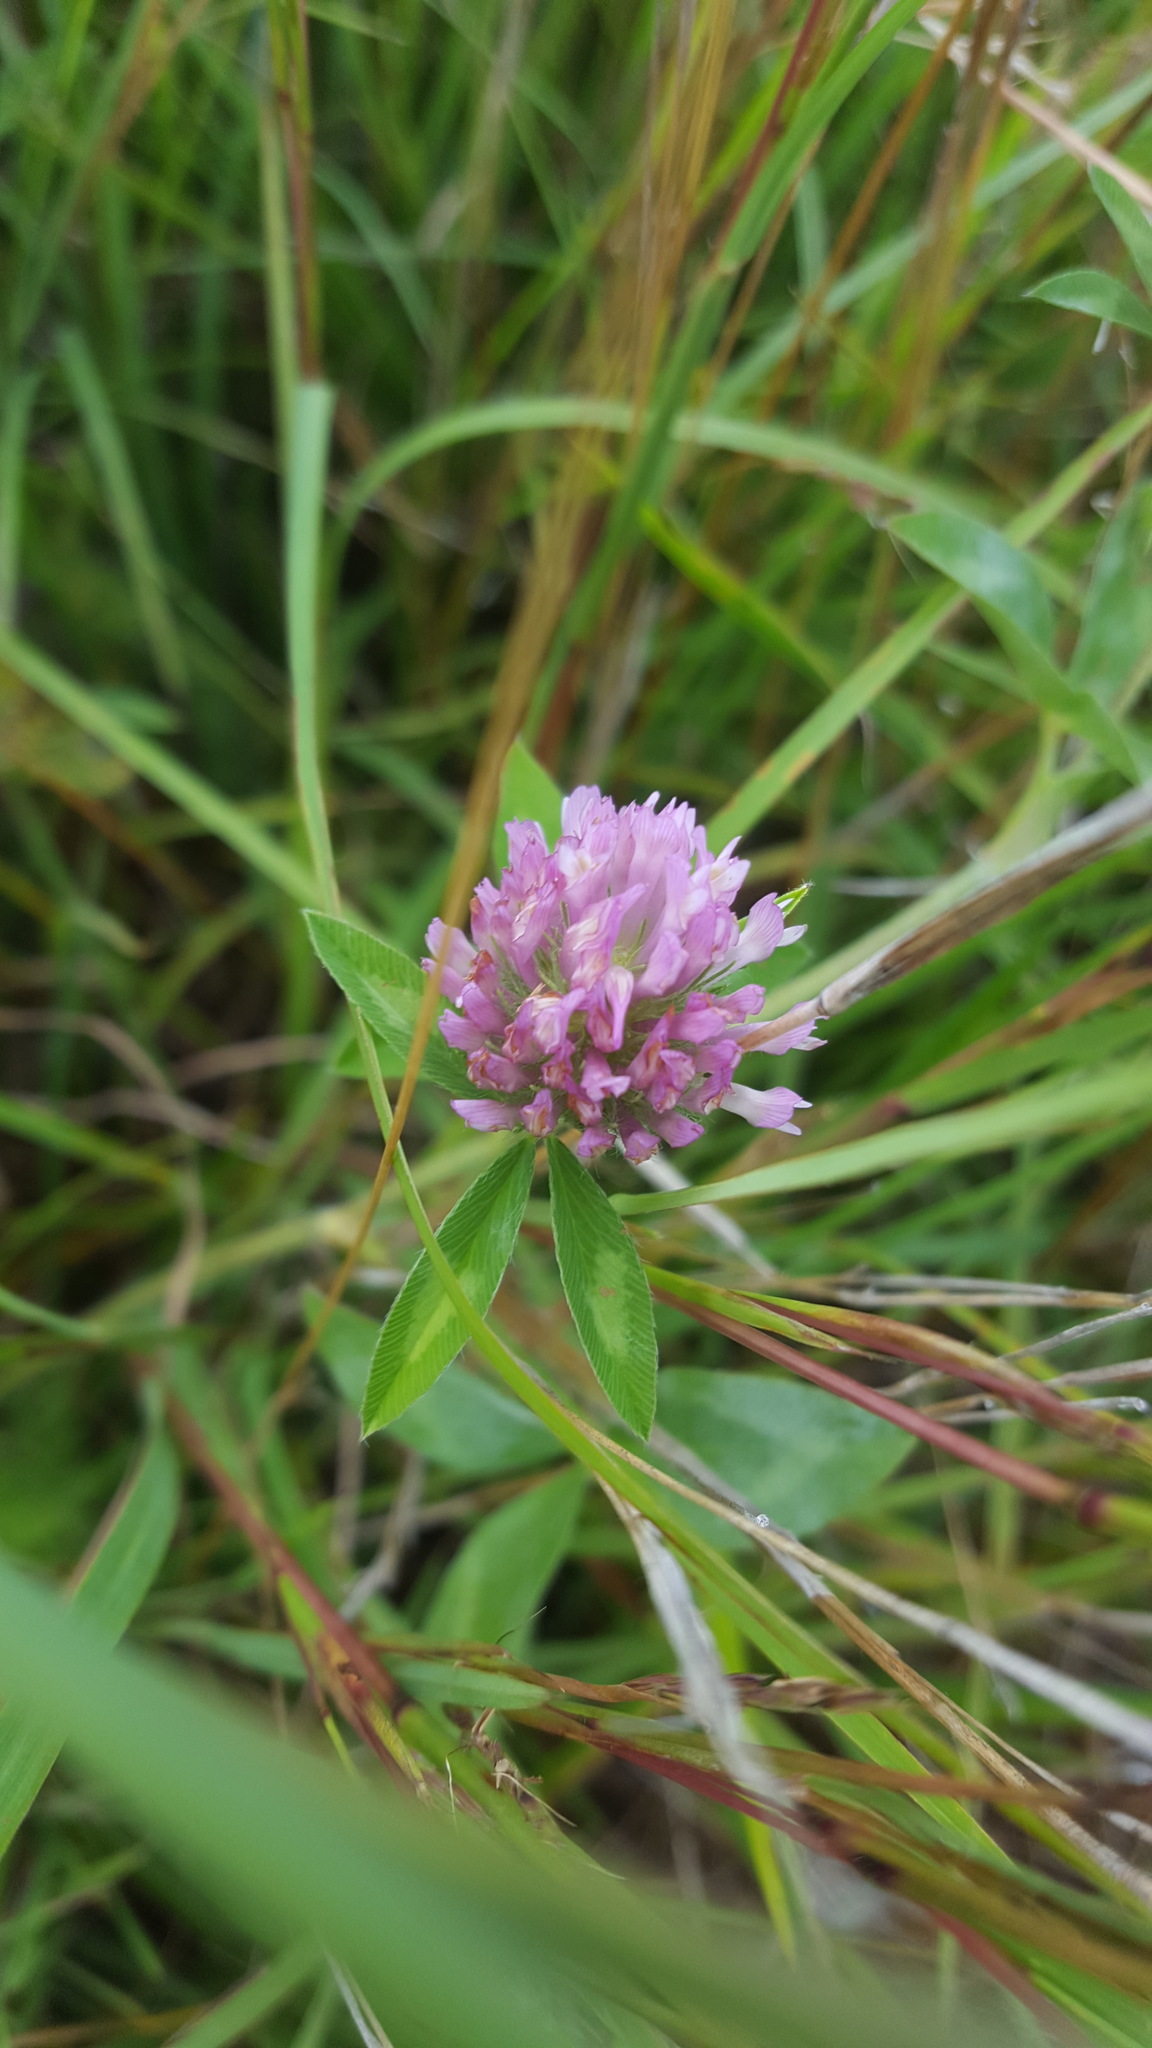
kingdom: Plantae
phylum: Tracheophyta
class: Magnoliopsida
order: Fabales
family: Fabaceae
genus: Trifolium
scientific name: Trifolium pratense
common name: Red clover
